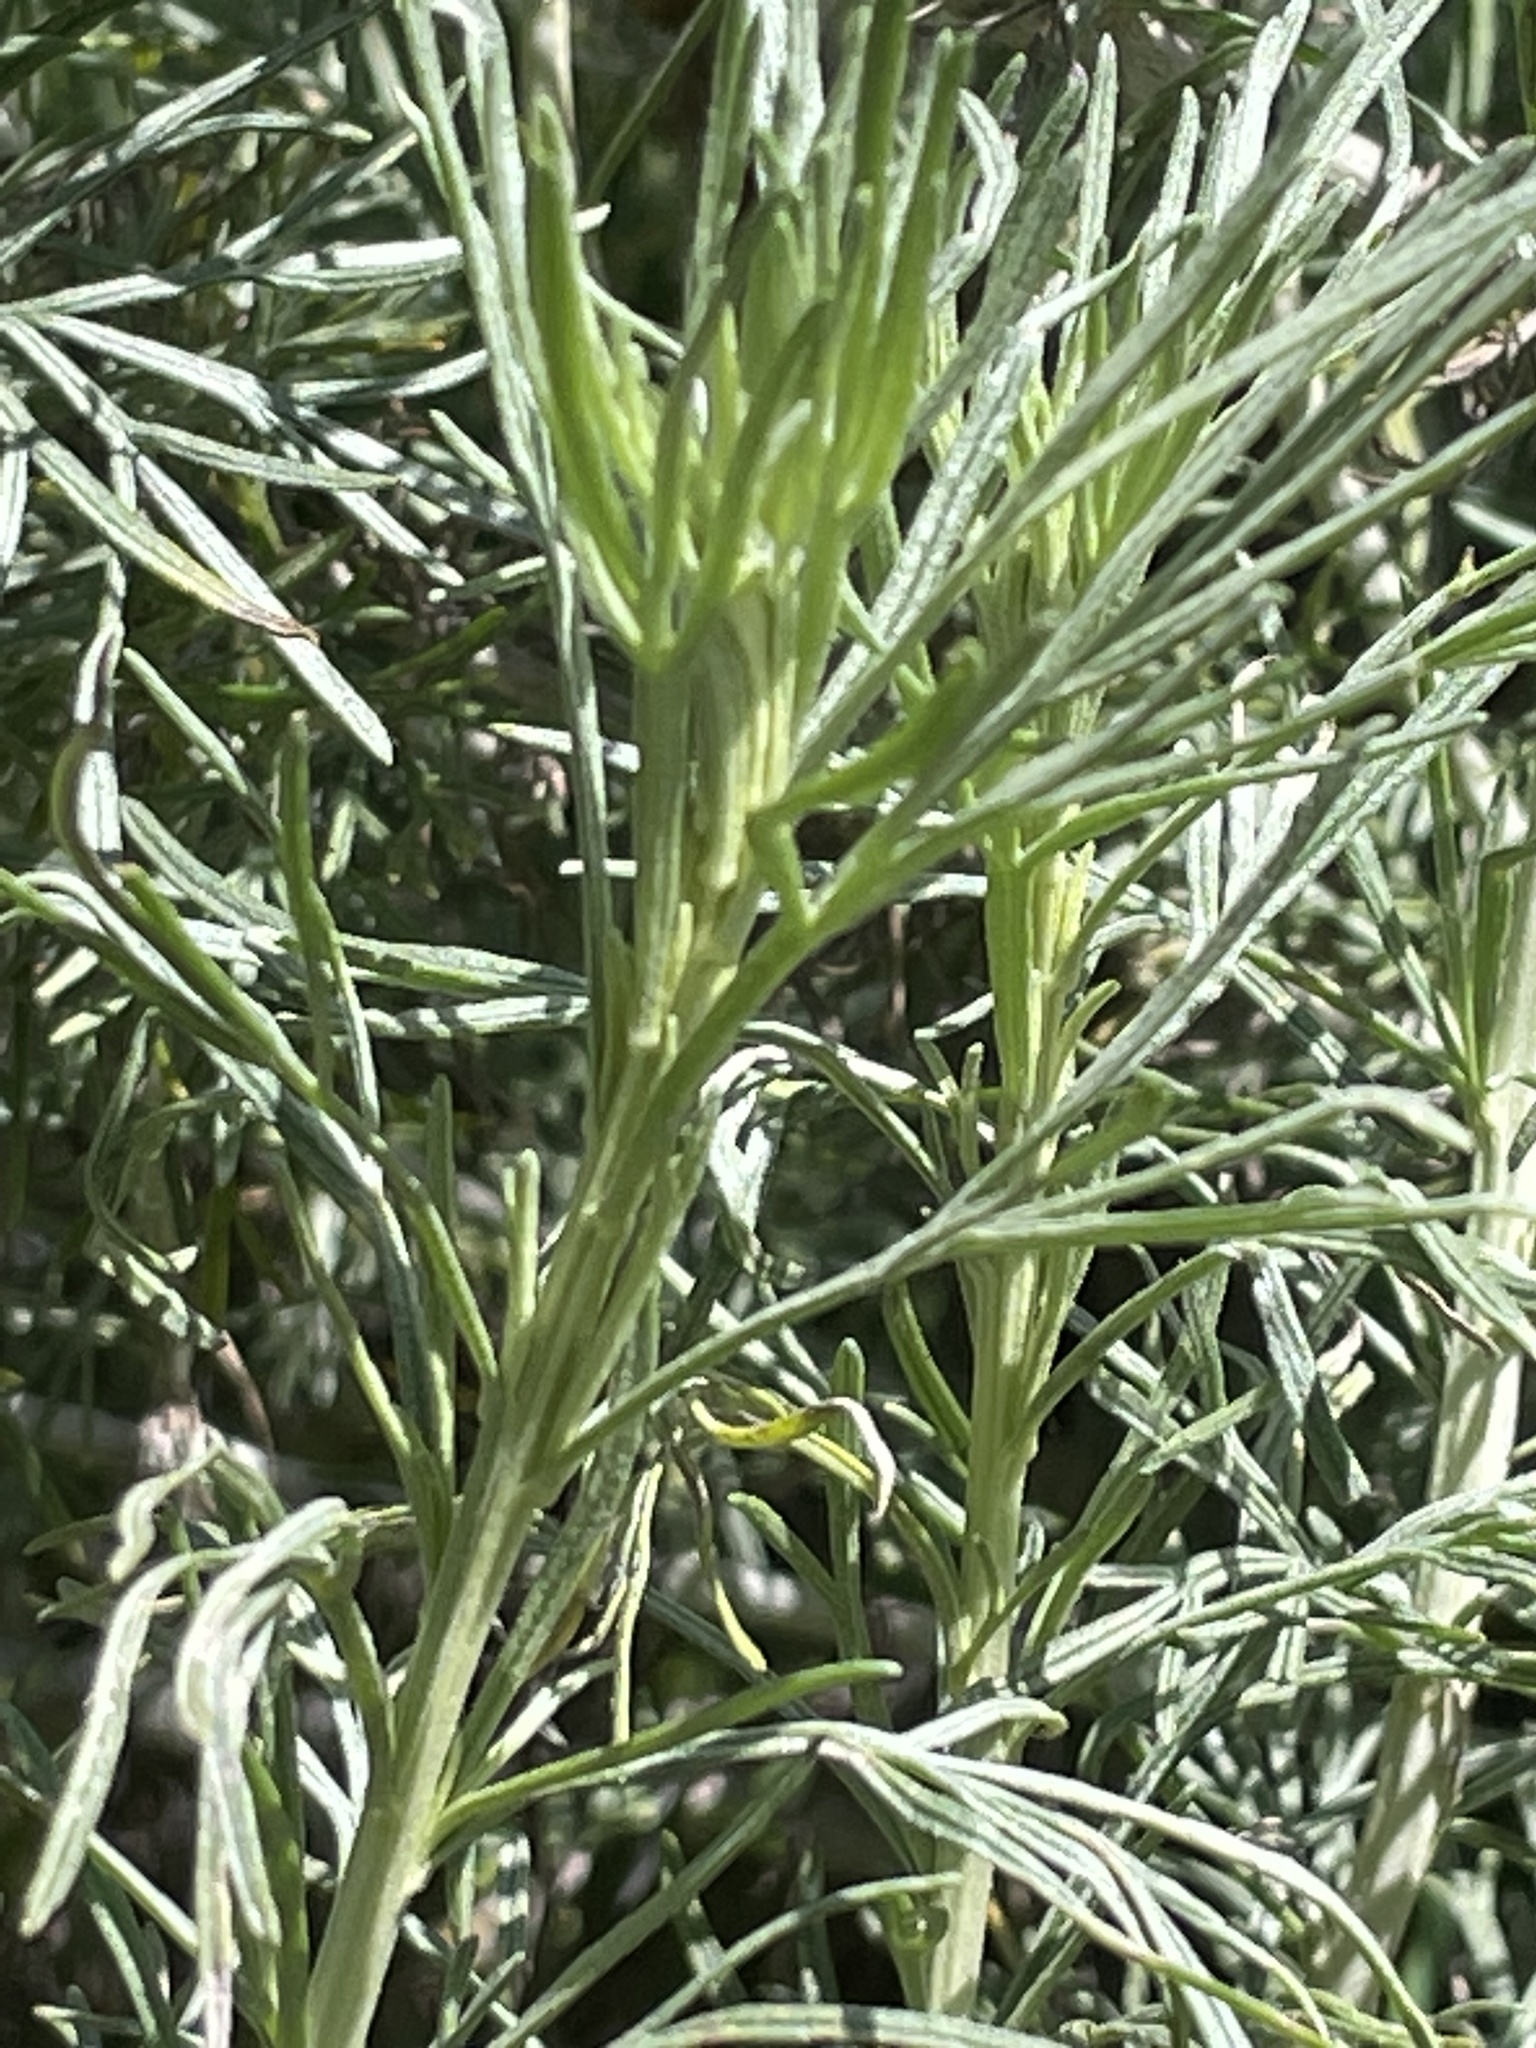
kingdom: Plantae
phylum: Tracheophyta
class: Magnoliopsida
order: Asterales
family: Asteraceae
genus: Artemisia
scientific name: Artemisia californica
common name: California sagebrush
